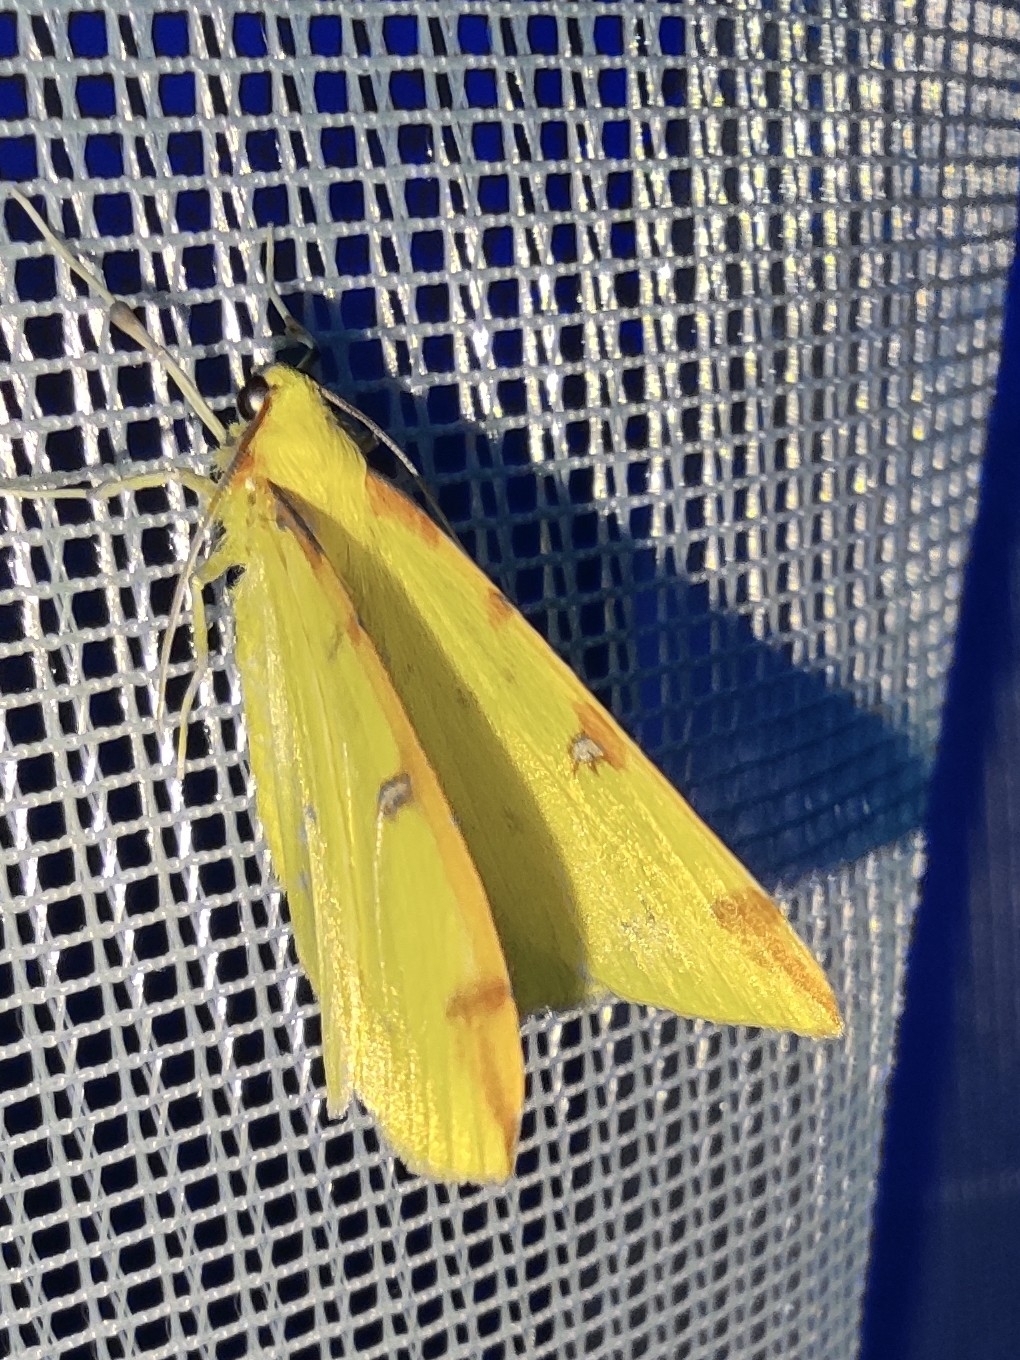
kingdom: Animalia
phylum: Arthropoda
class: Insecta
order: Lepidoptera
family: Geometridae
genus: Opisthograptis
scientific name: Opisthograptis luteolata
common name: Brimstone moth
